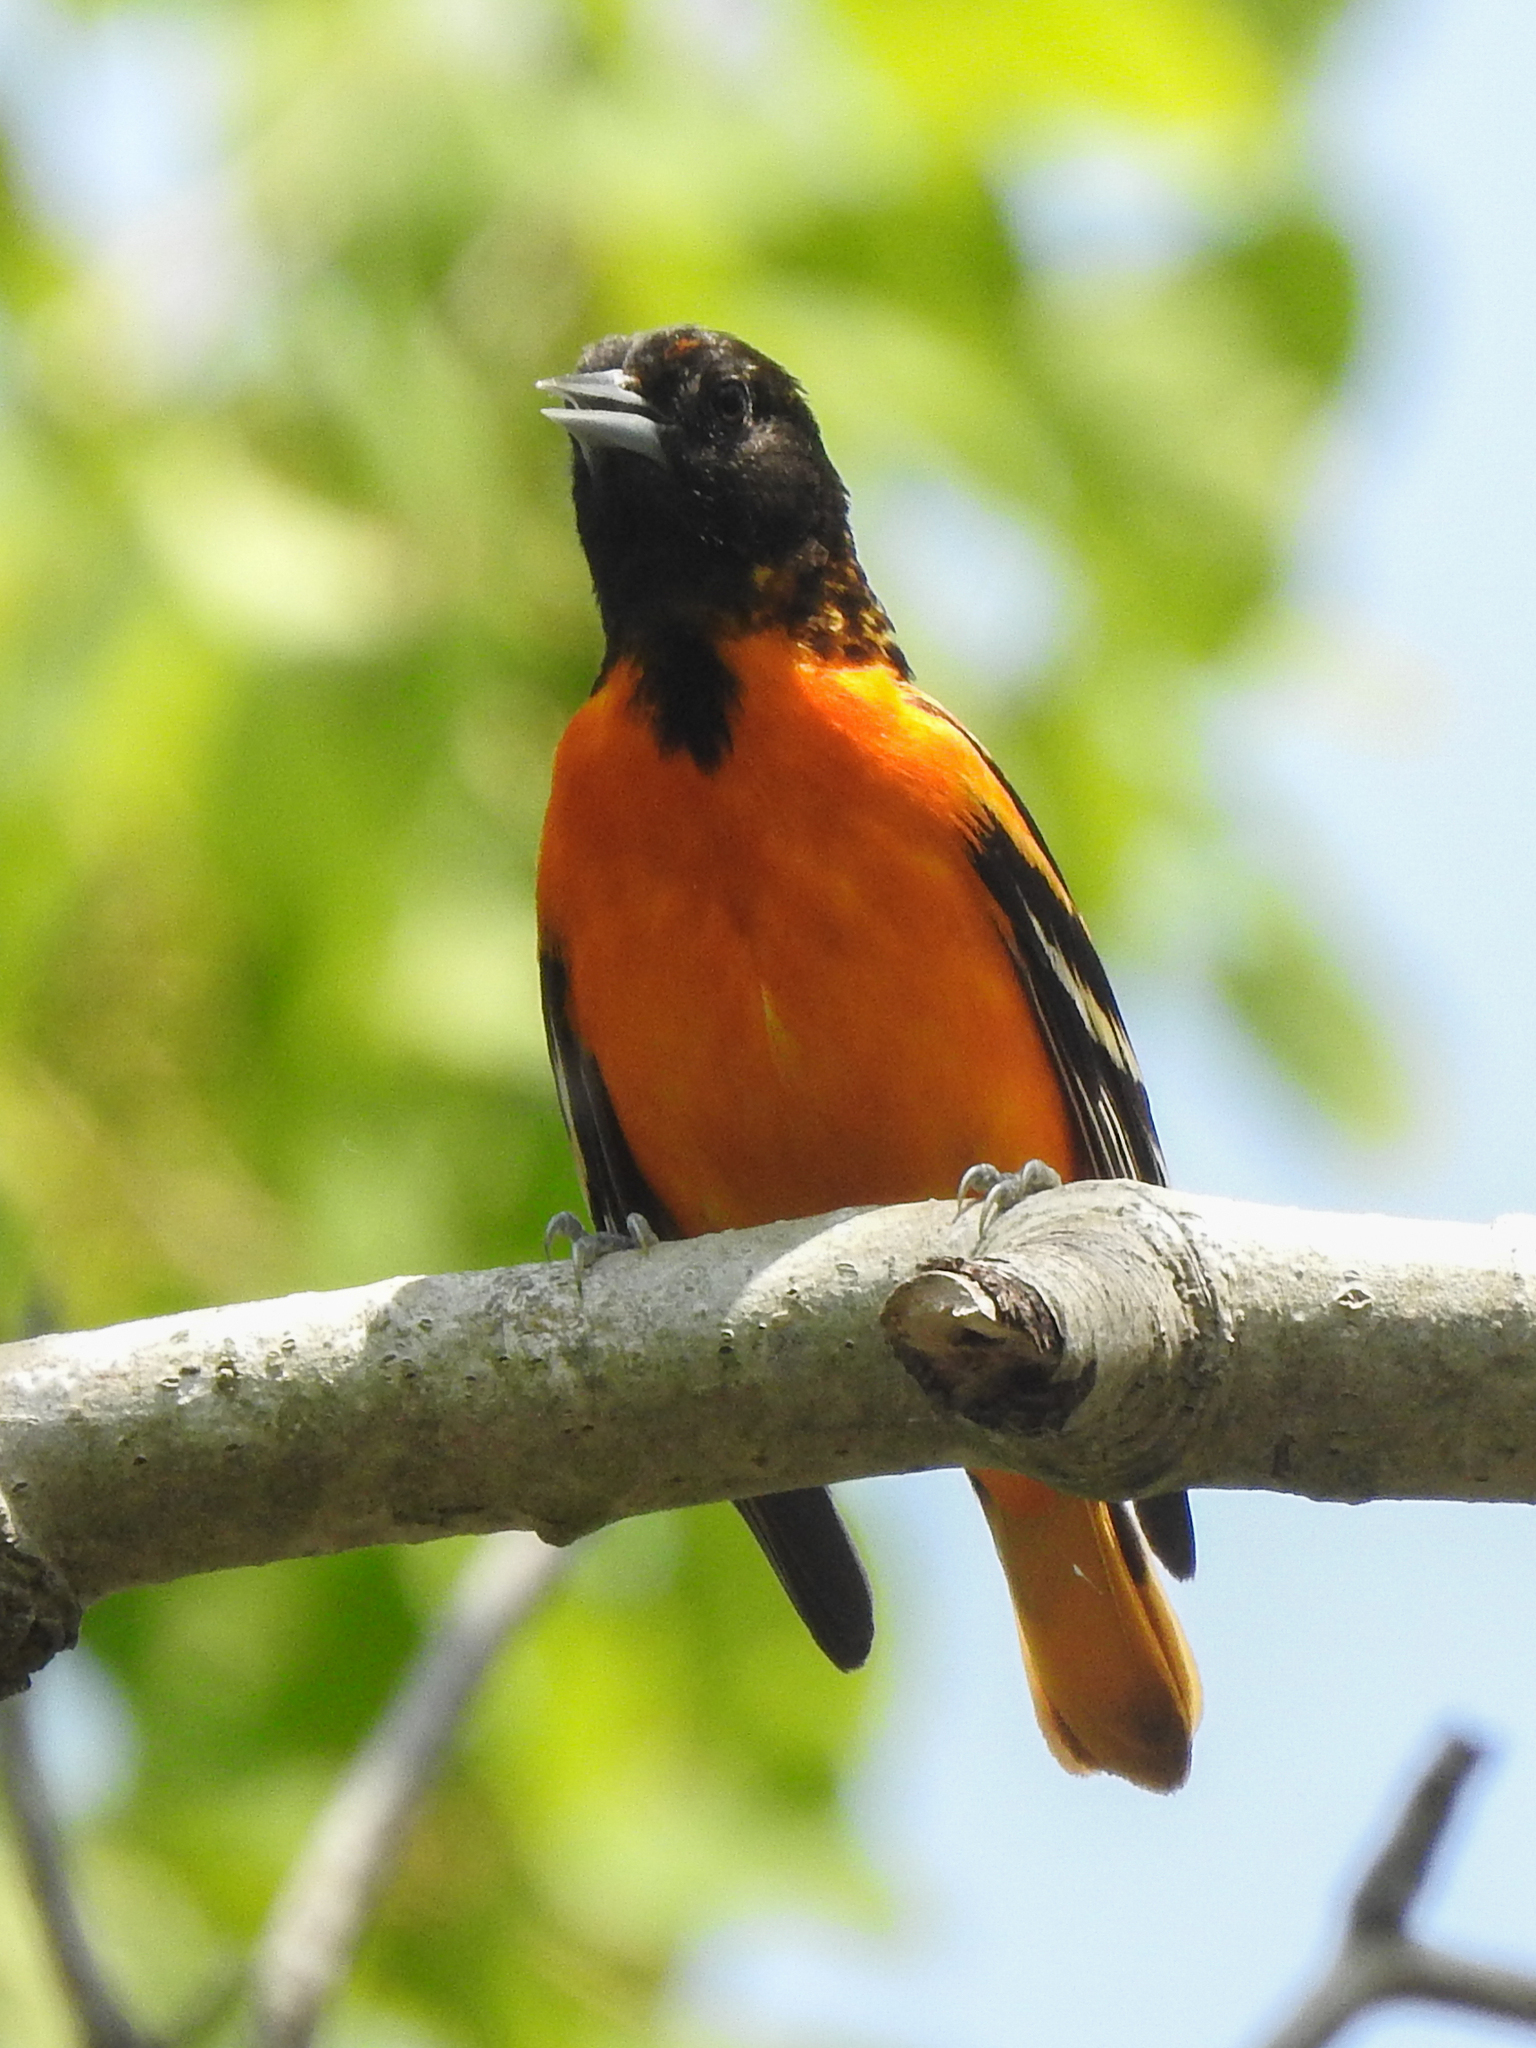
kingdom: Animalia
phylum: Chordata
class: Aves
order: Passeriformes
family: Icteridae
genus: Icterus
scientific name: Icterus galbula
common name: Baltimore oriole
